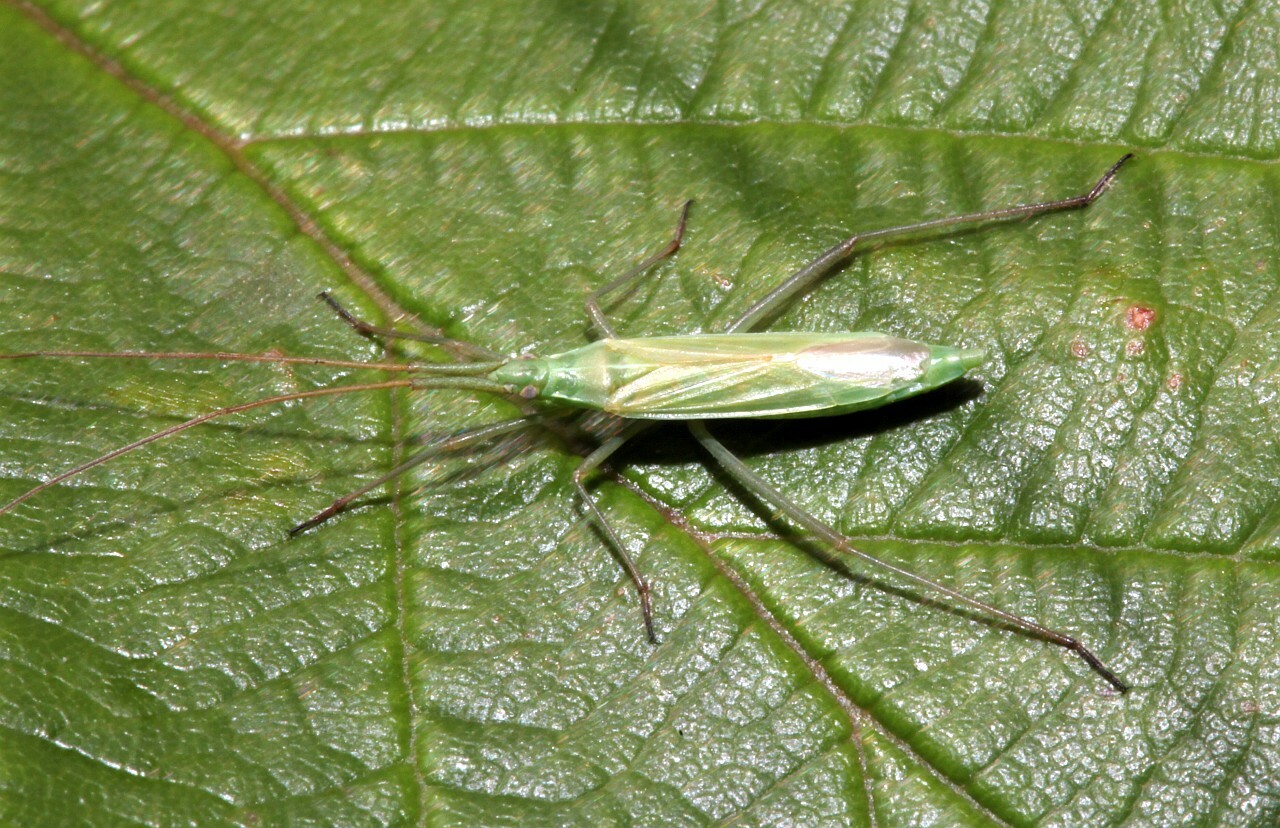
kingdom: Animalia
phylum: Arthropoda
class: Insecta
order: Hemiptera
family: Miridae
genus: Megaloceroea
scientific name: Megaloceroea recticornis
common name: Plant bug
